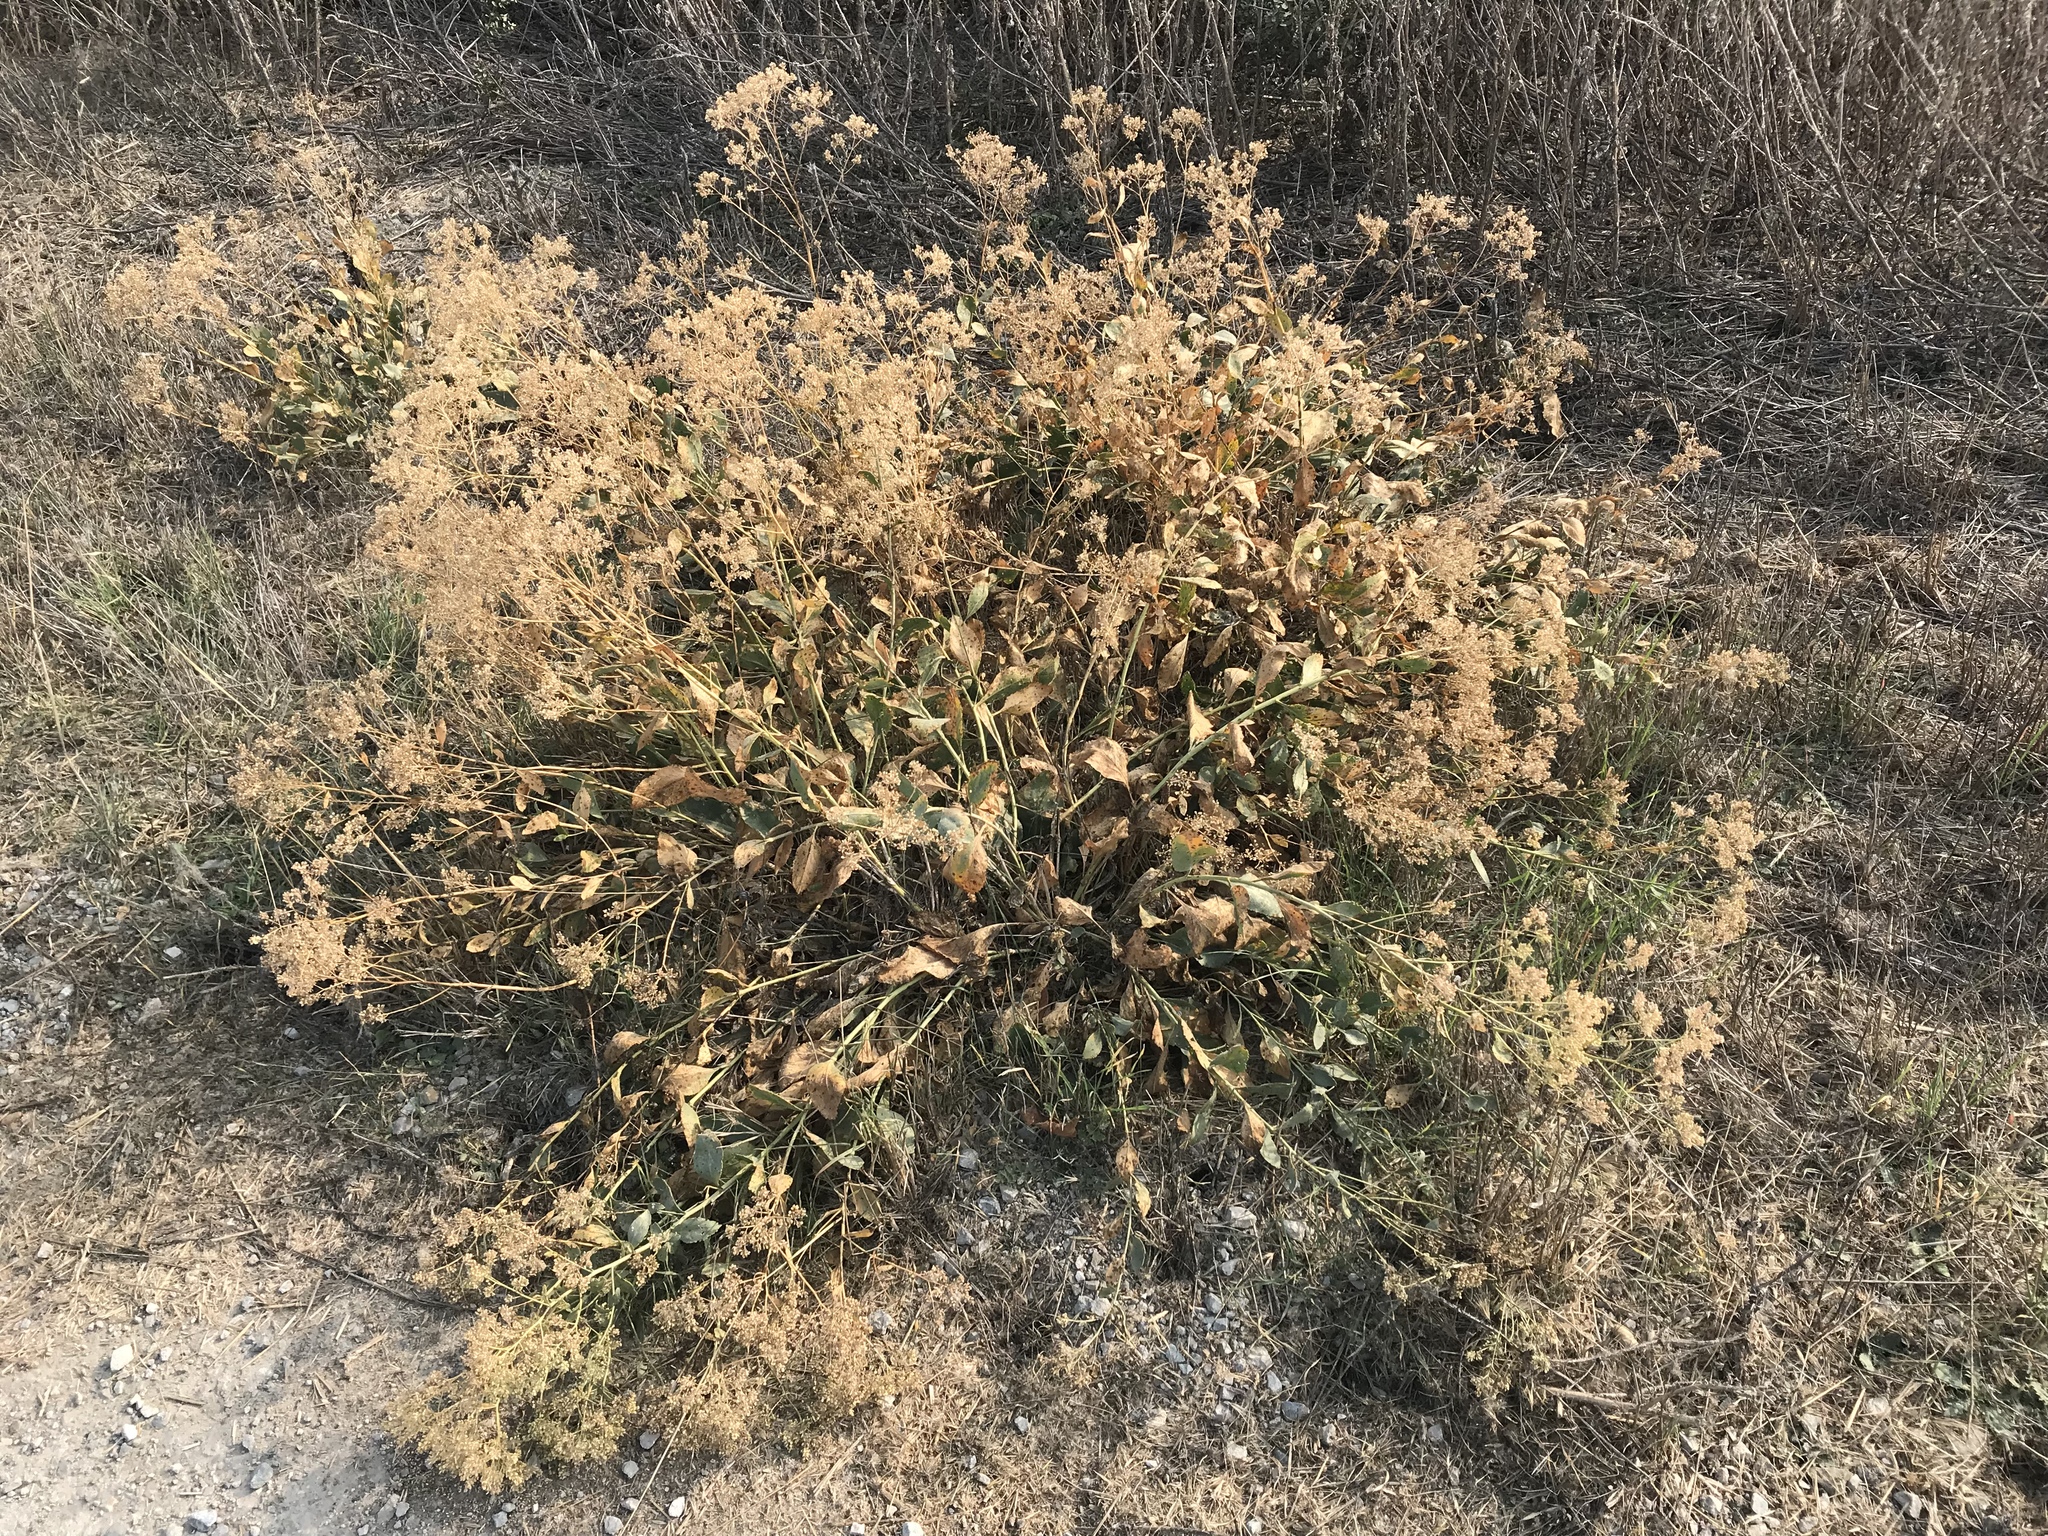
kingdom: Plantae
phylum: Tracheophyta
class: Magnoliopsida
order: Brassicales
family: Brassicaceae
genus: Lepidium
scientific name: Lepidium latifolium
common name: Dittander
